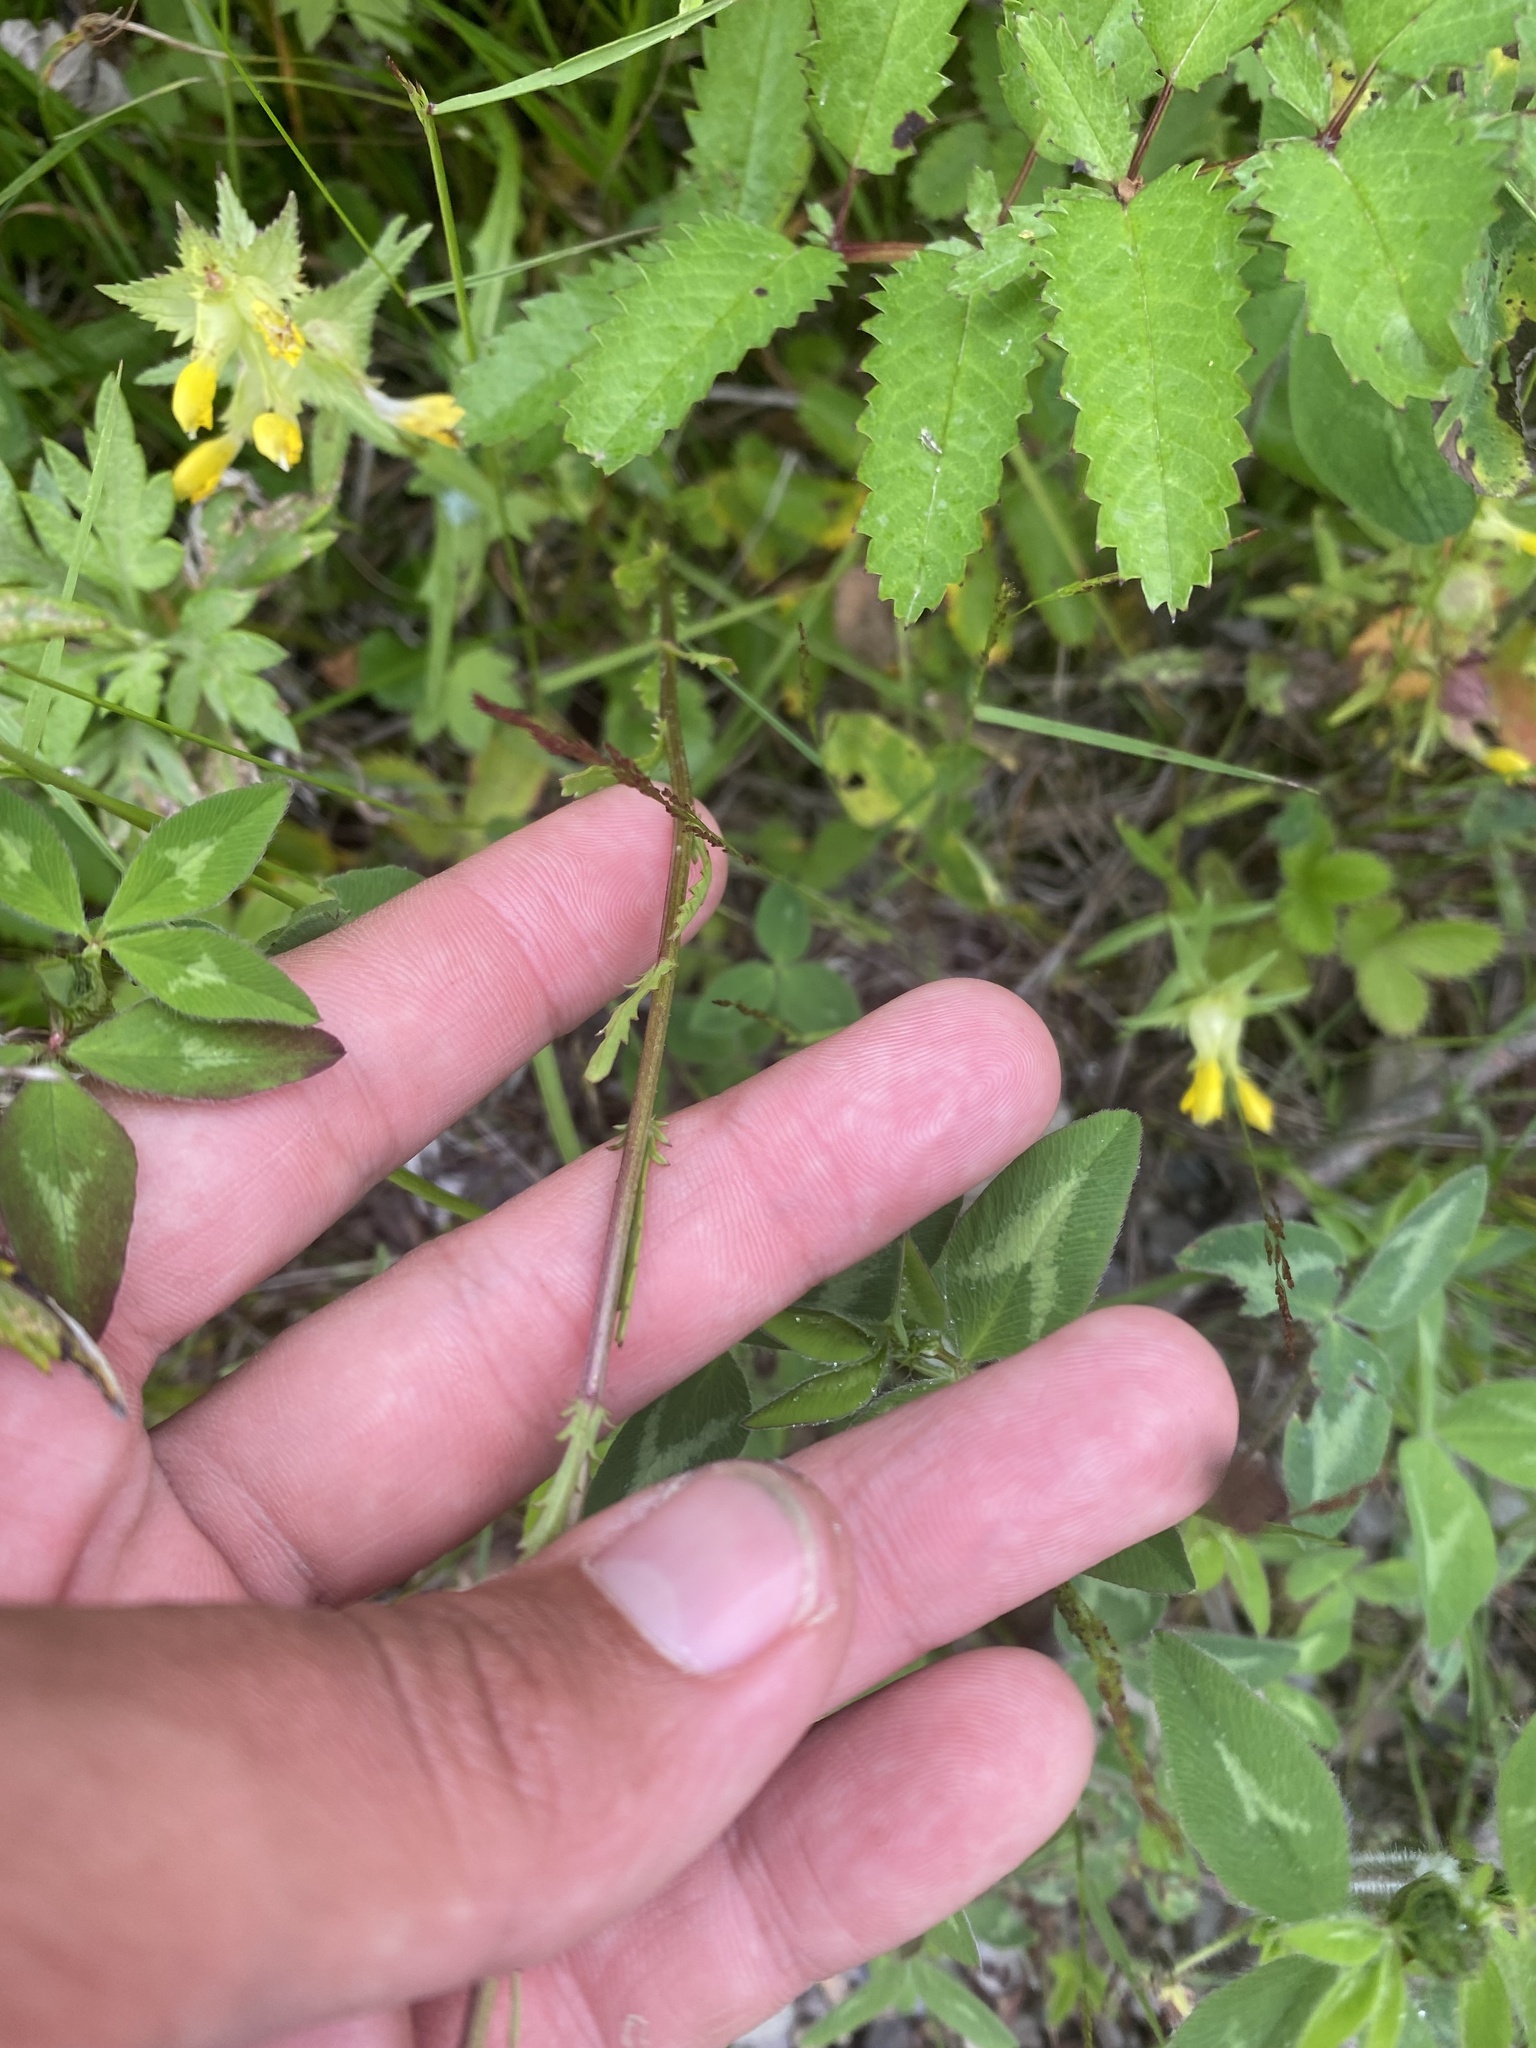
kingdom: Plantae
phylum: Tracheophyta
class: Magnoliopsida
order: Asterales
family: Asteraceae
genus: Leucanthemum
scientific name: Leucanthemum vulgare
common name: Oxeye daisy
